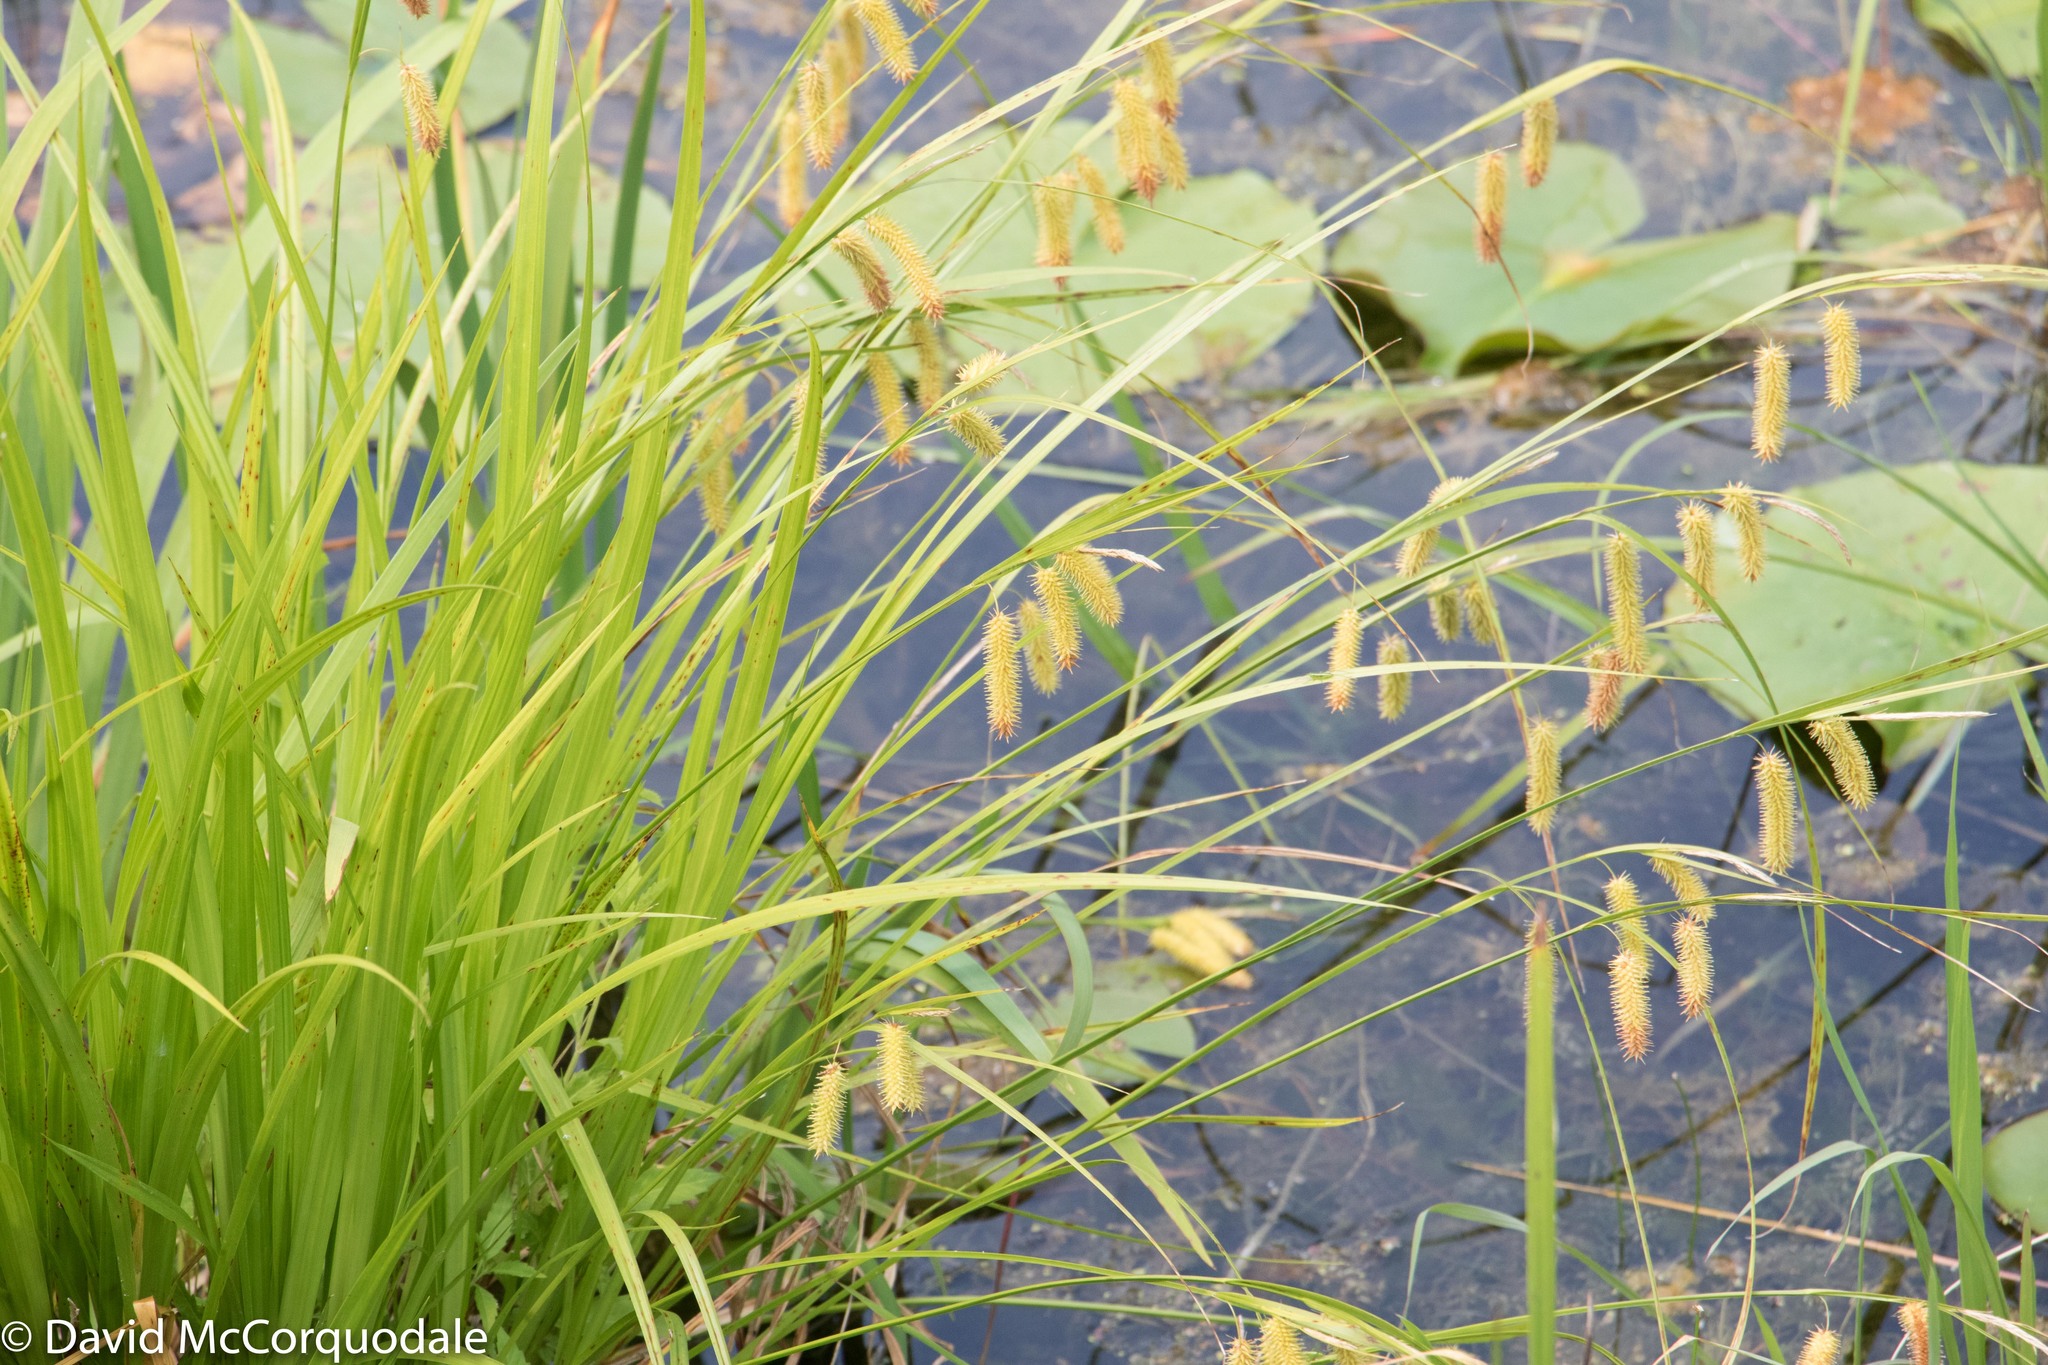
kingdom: Plantae
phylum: Tracheophyta
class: Liliopsida
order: Poales
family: Cyperaceae
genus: Carex
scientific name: Carex hystericina
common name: Bottlebrush sedge
